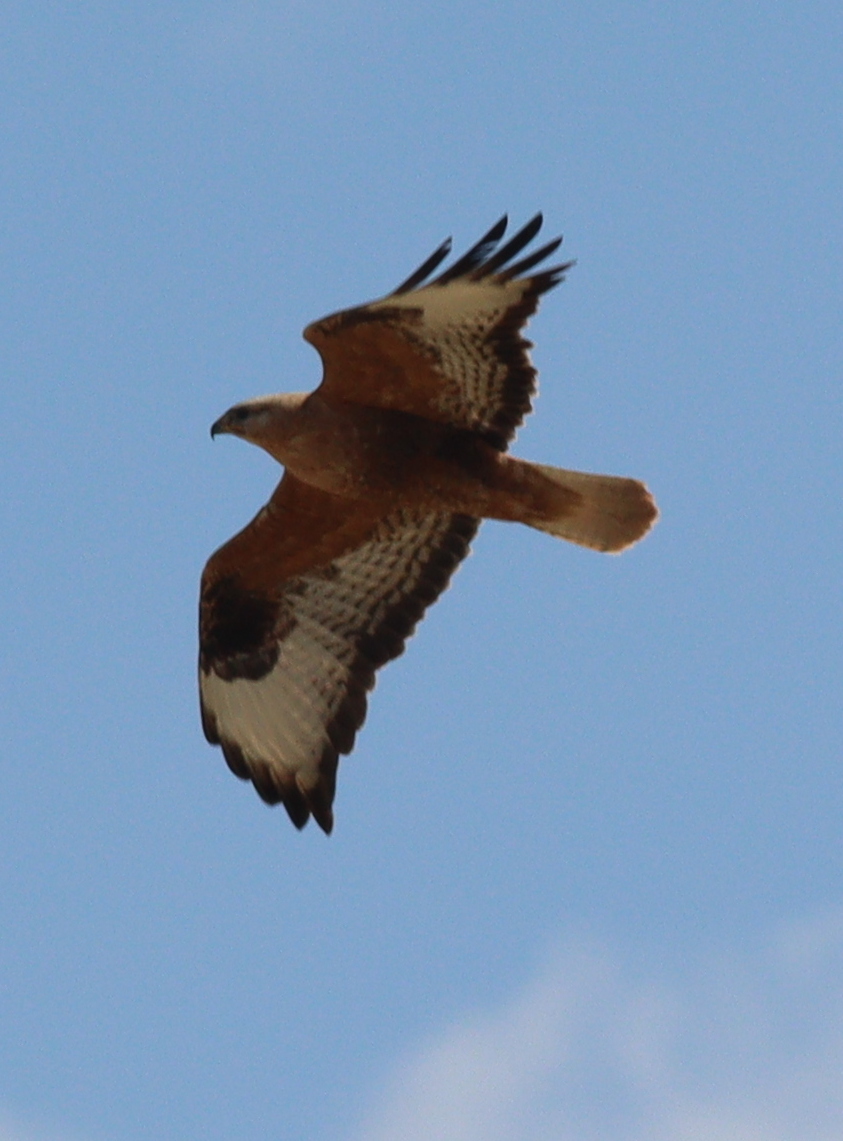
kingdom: Animalia
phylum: Chordata
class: Aves
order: Accipitriformes
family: Accipitridae
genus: Buteo
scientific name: Buteo rufinus
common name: Long-legged buzzard
